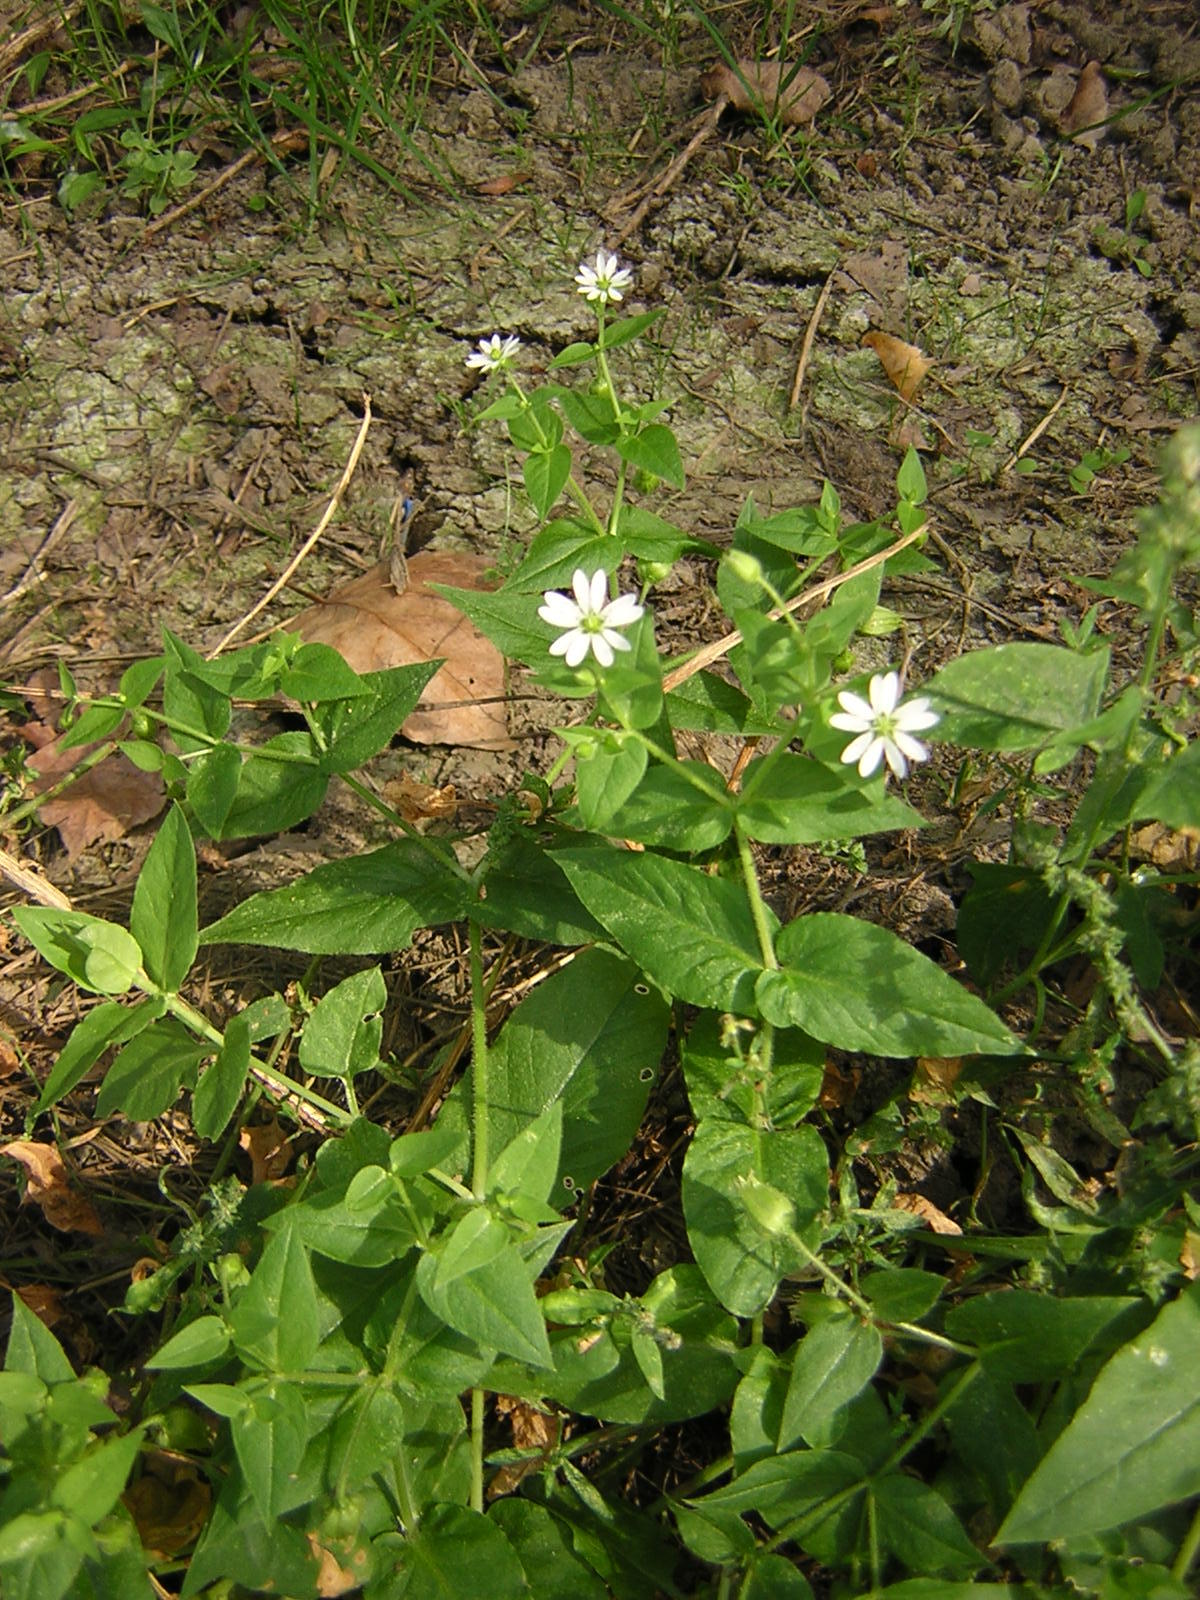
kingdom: Plantae
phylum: Tracheophyta
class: Magnoliopsida
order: Caryophyllales
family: Caryophyllaceae
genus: Stellaria
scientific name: Stellaria aquatica
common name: Water chickweed
